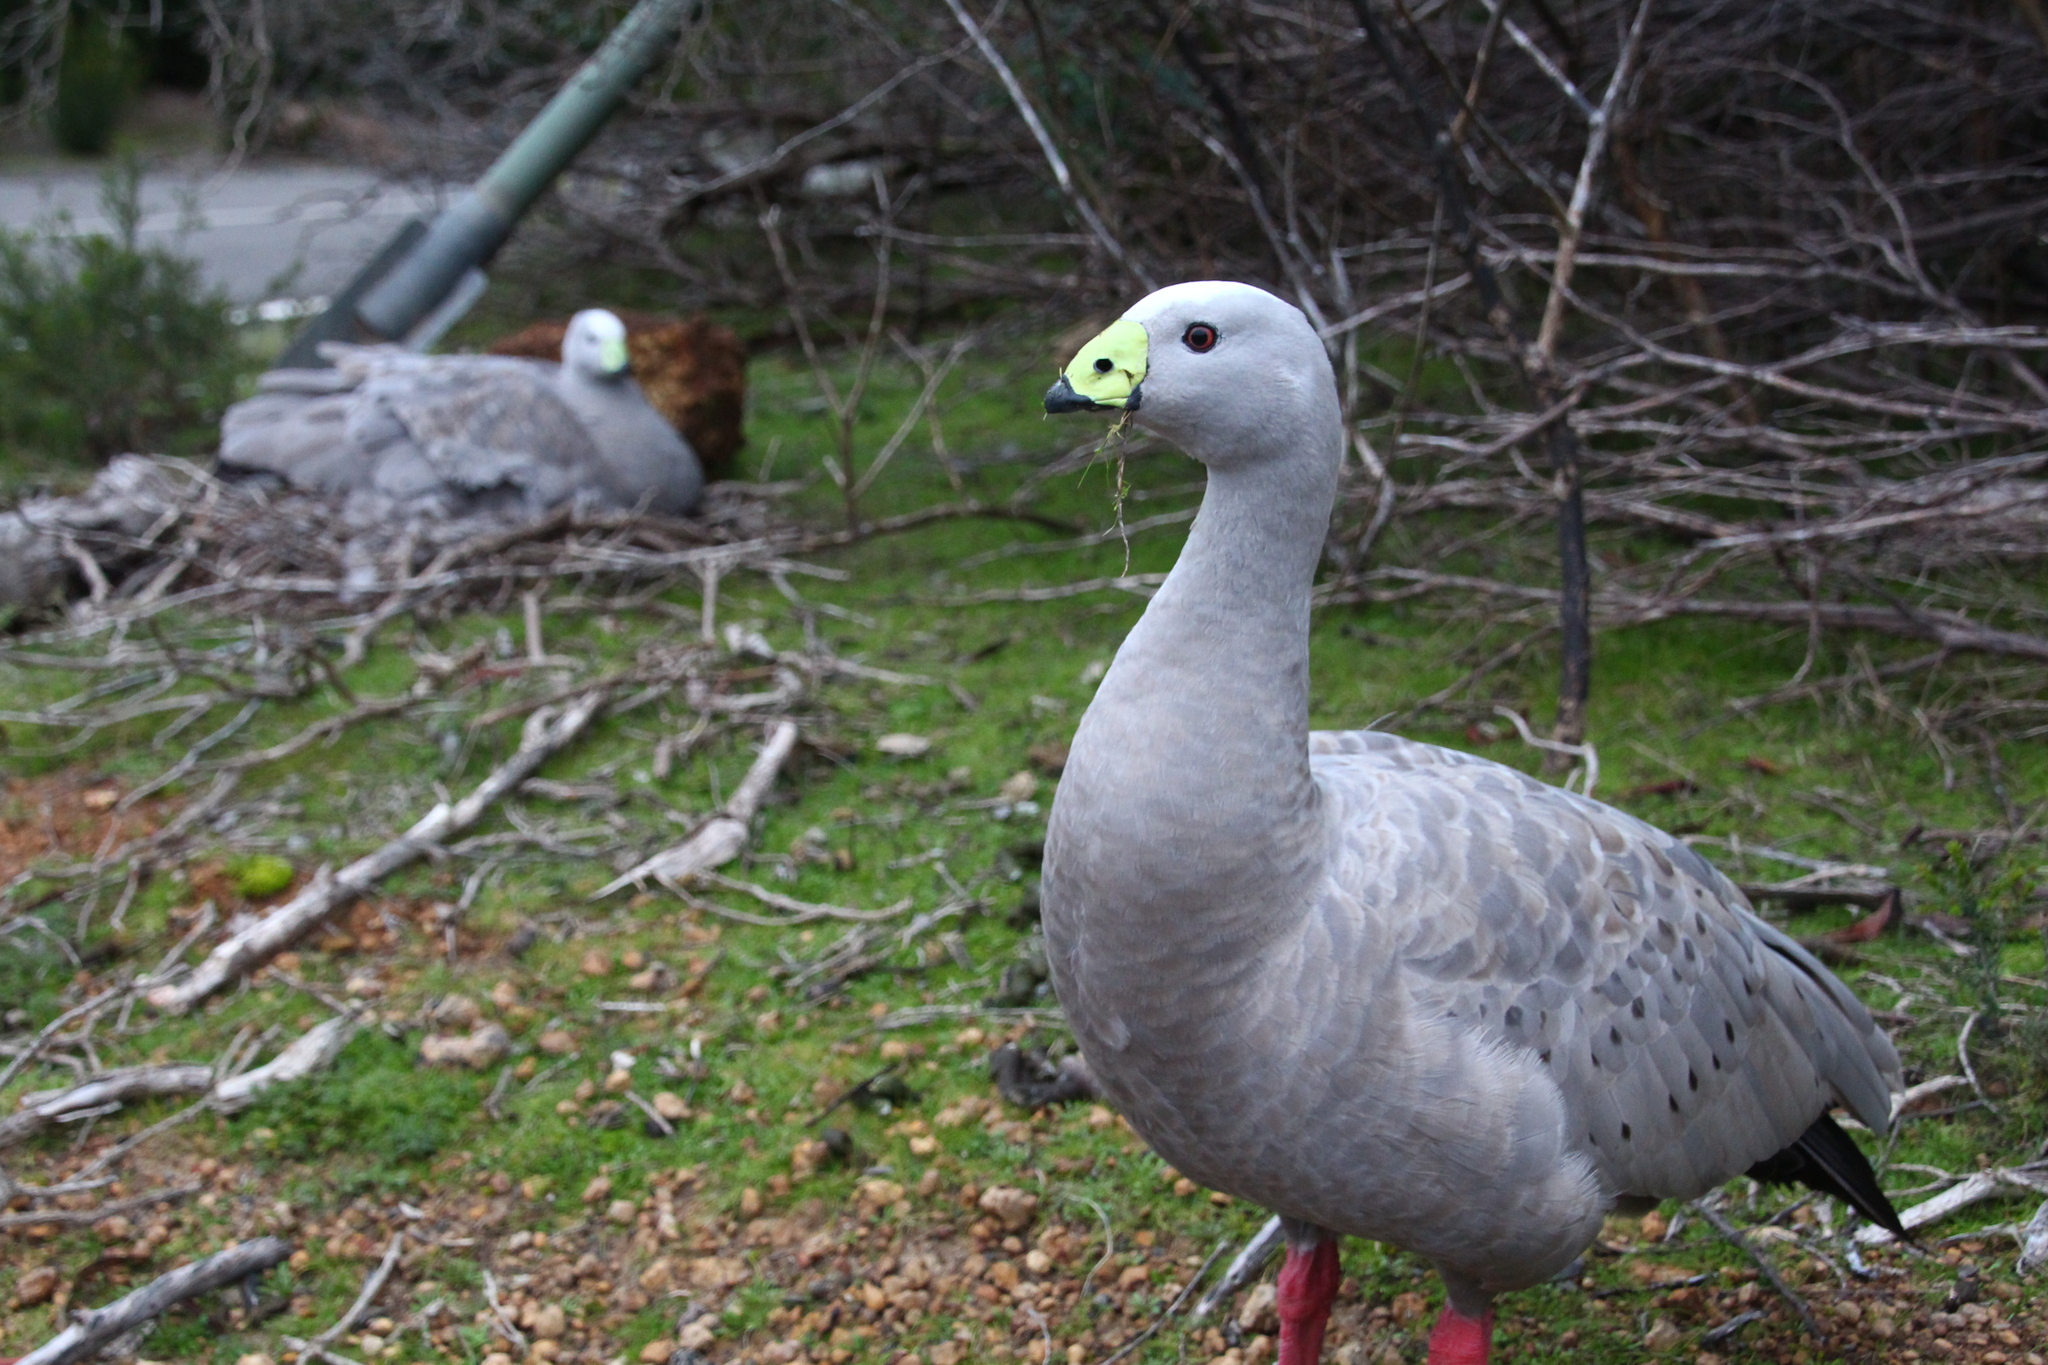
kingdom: Animalia
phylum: Chordata
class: Aves
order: Anseriformes
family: Anatidae
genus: Cereopsis
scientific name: Cereopsis novaehollandiae
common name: Cape barren goose
